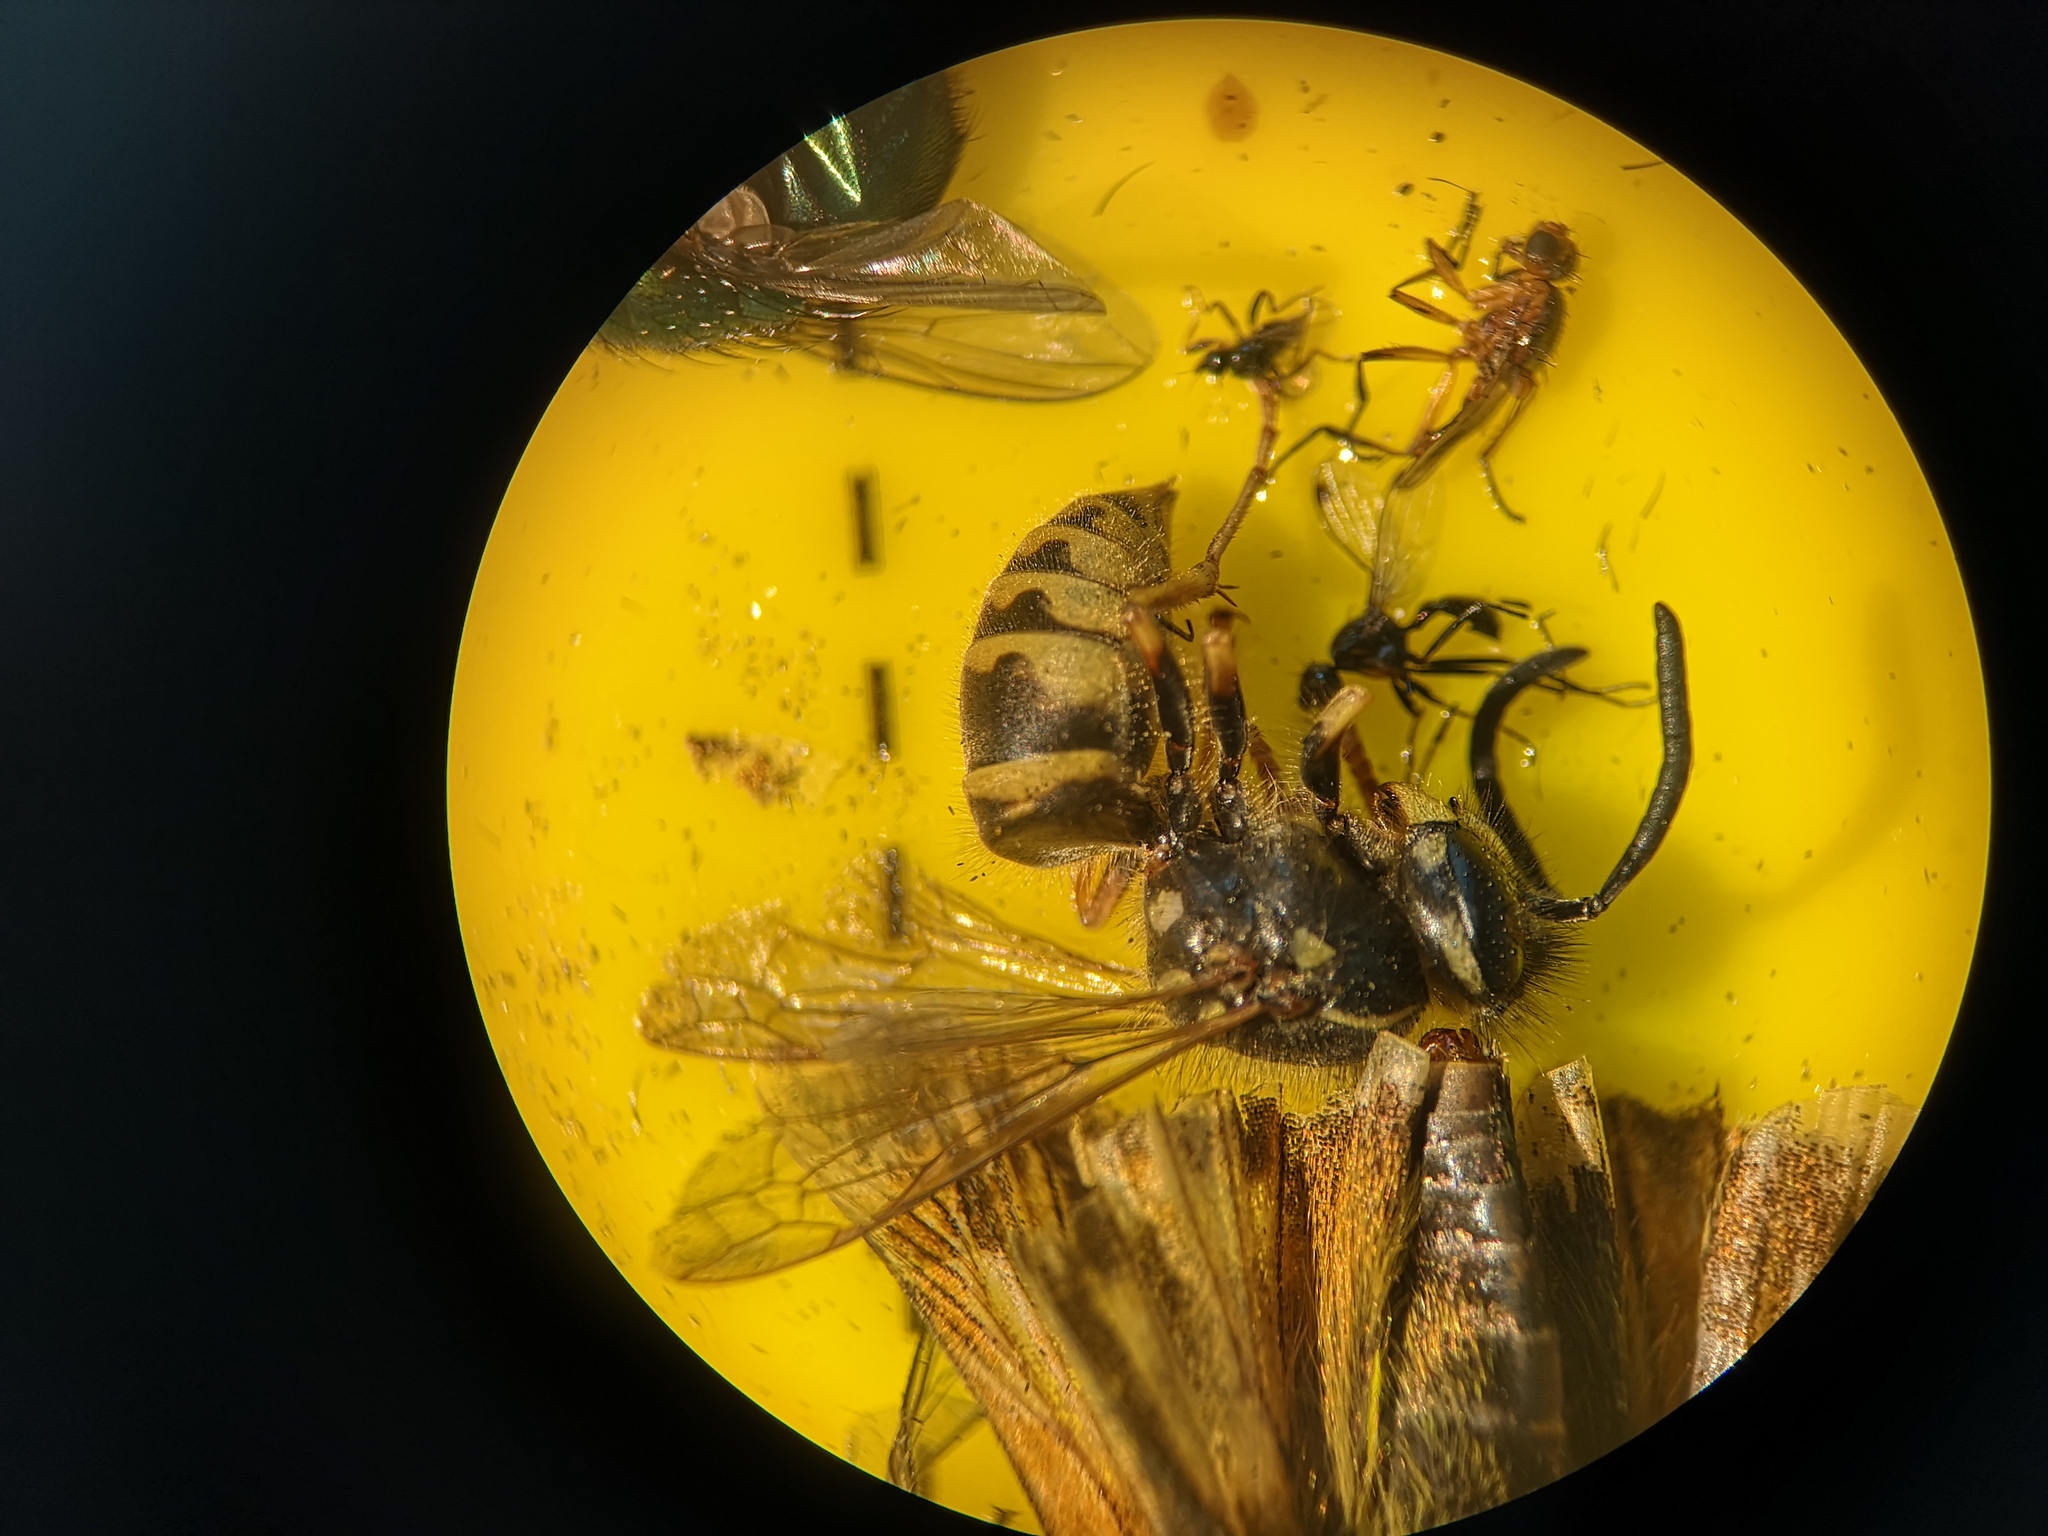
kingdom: Animalia
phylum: Arthropoda
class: Insecta
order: Hymenoptera
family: Vespidae
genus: Vespula
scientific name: Vespula vulgaris
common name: Common wasp
